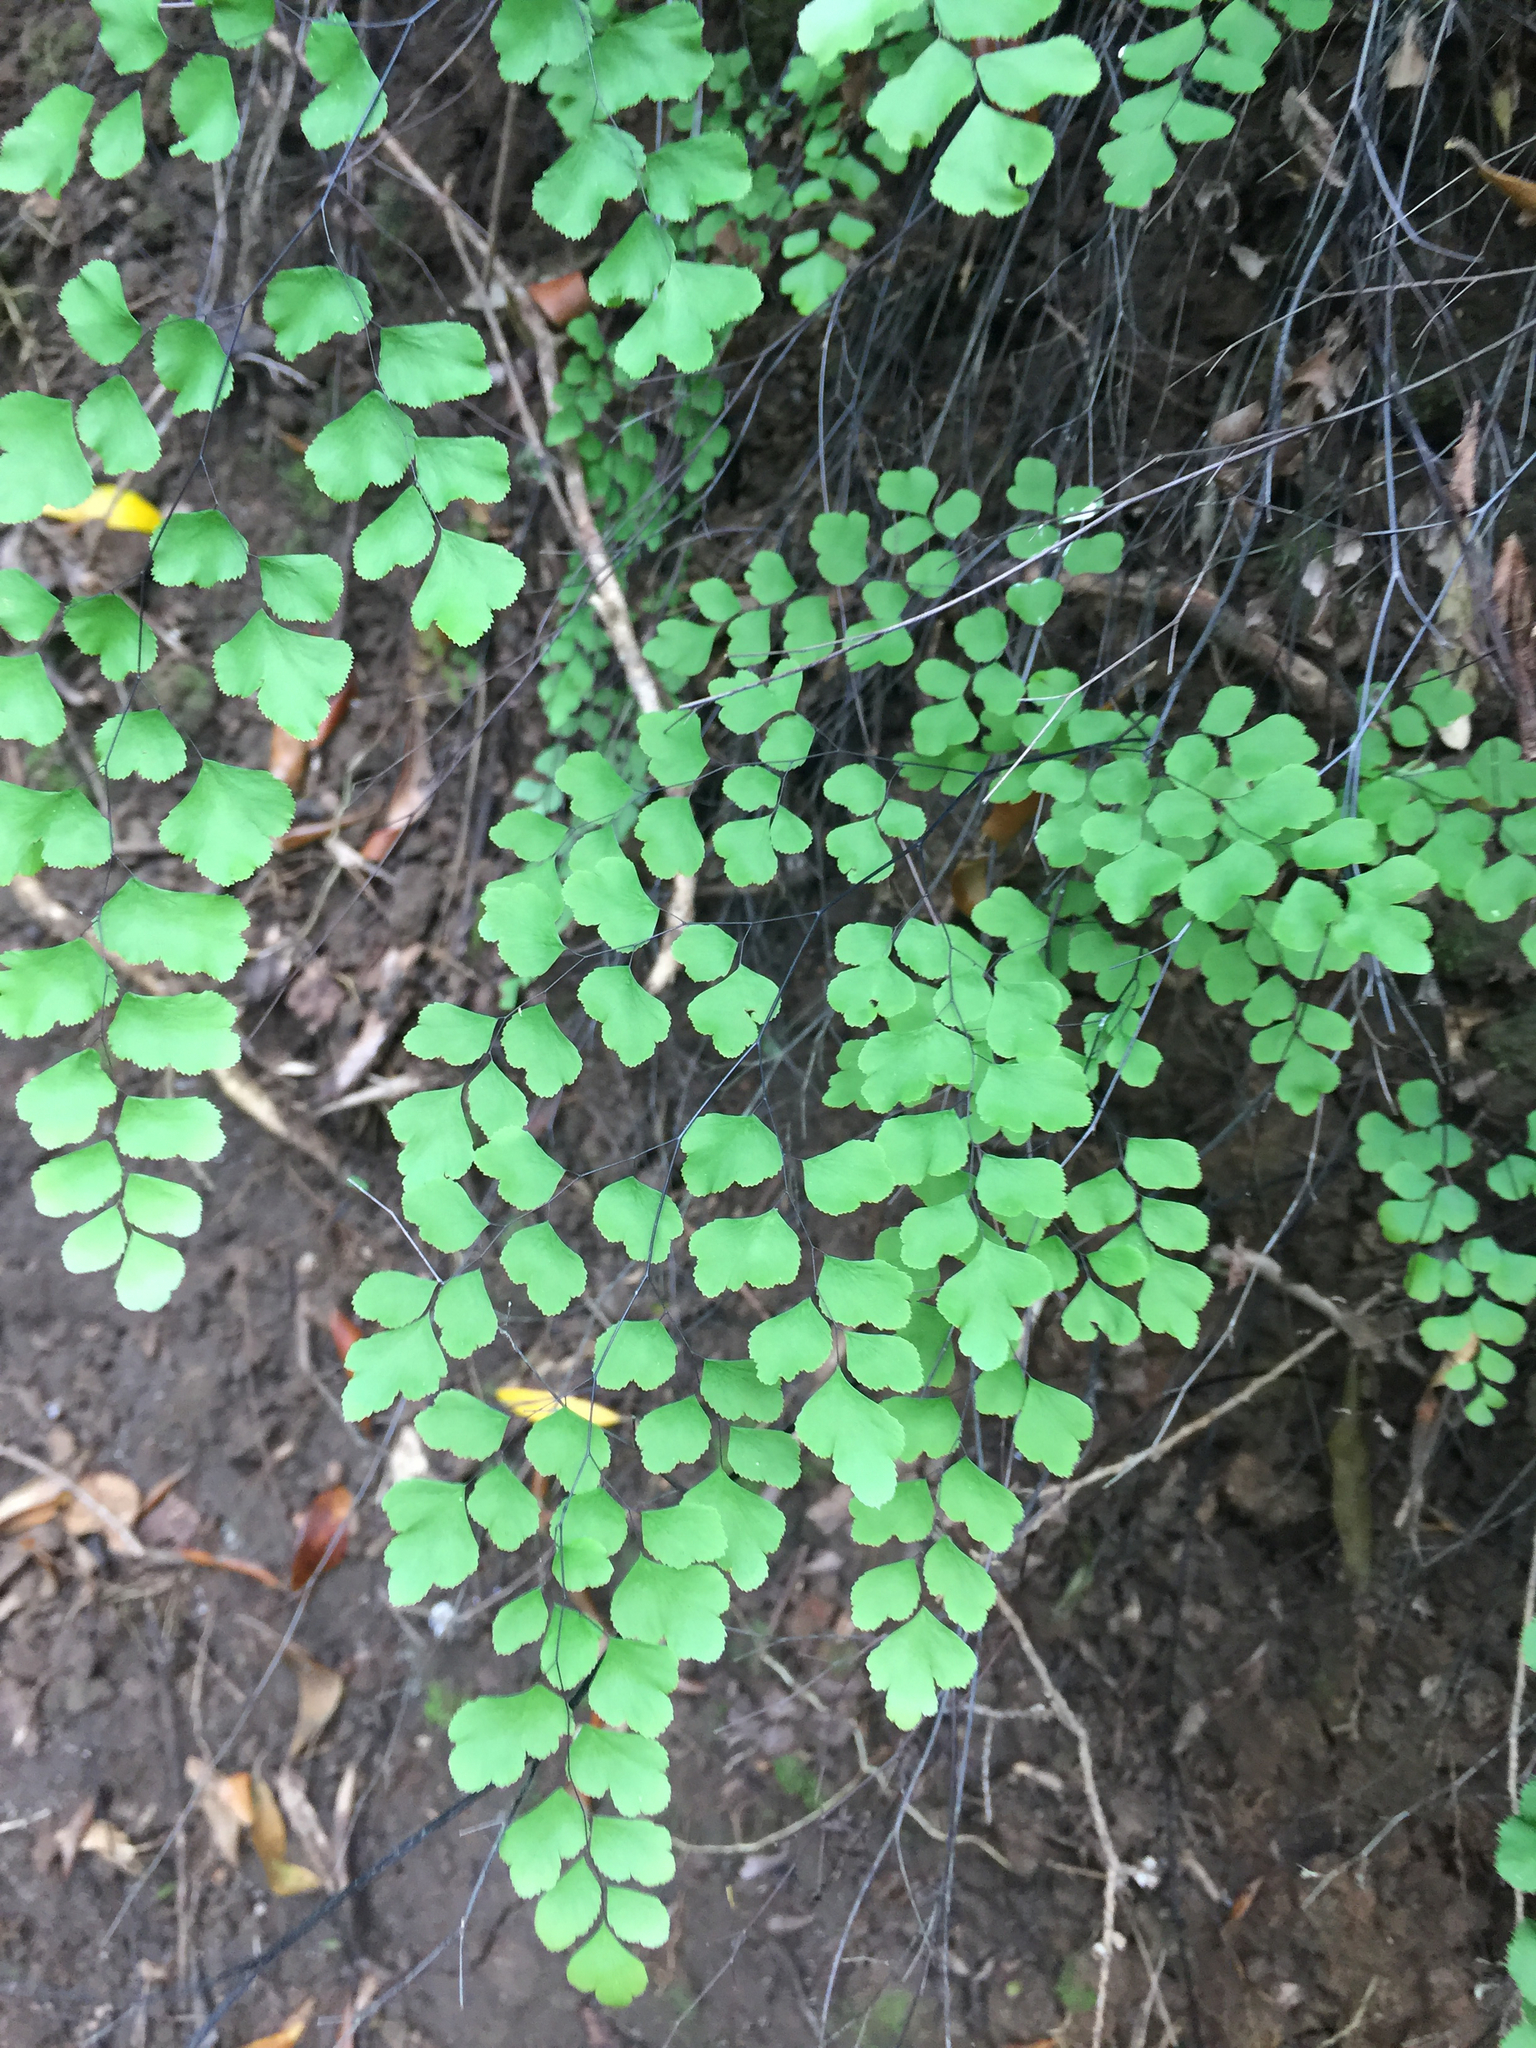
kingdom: Plantae
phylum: Tracheophyta
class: Polypodiopsida
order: Polypodiales
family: Pteridaceae
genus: Adiantum
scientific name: Adiantum aethiopicum
